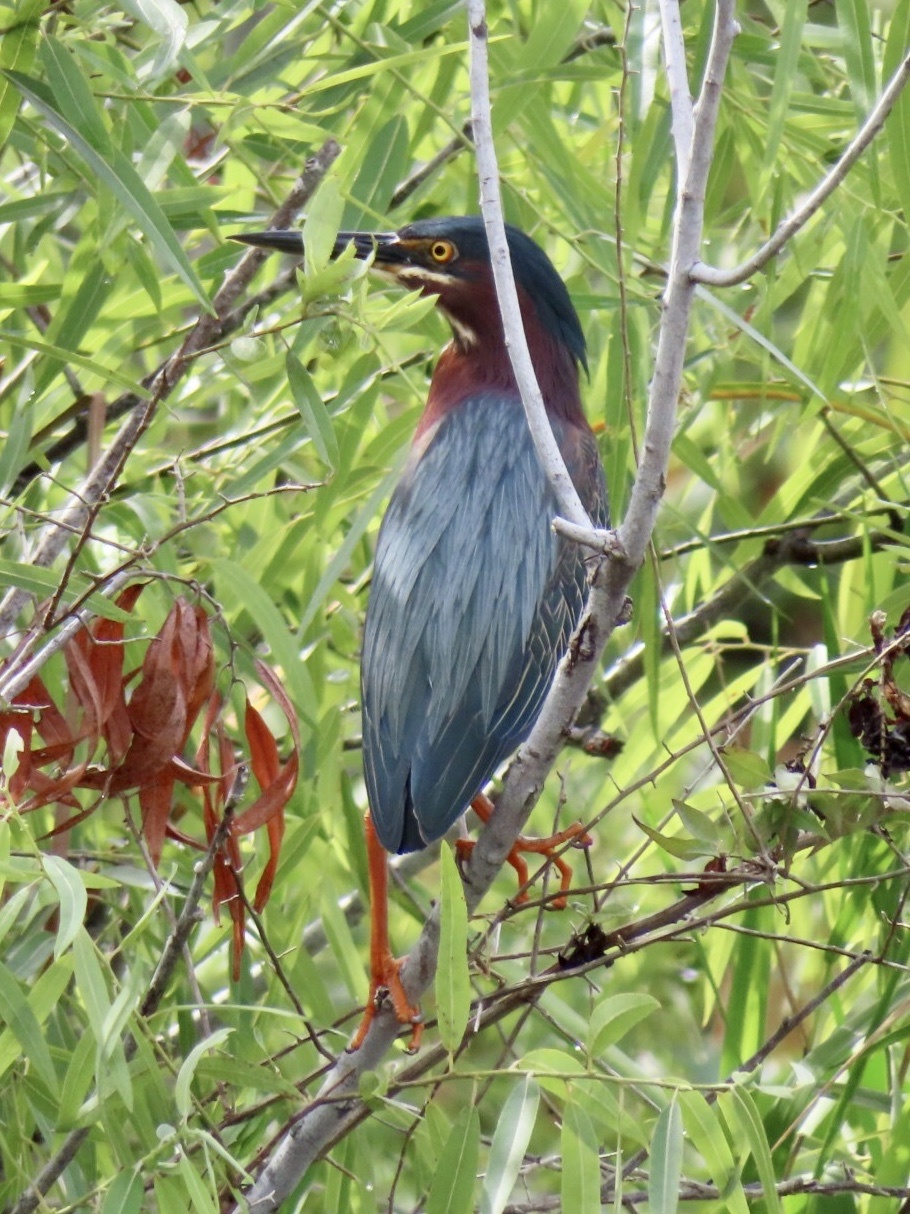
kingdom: Animalia
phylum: Chordata
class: Aves
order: Pelecaniformes
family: Ardeidae
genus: Butorides
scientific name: Butorides virescens
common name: Green heron
